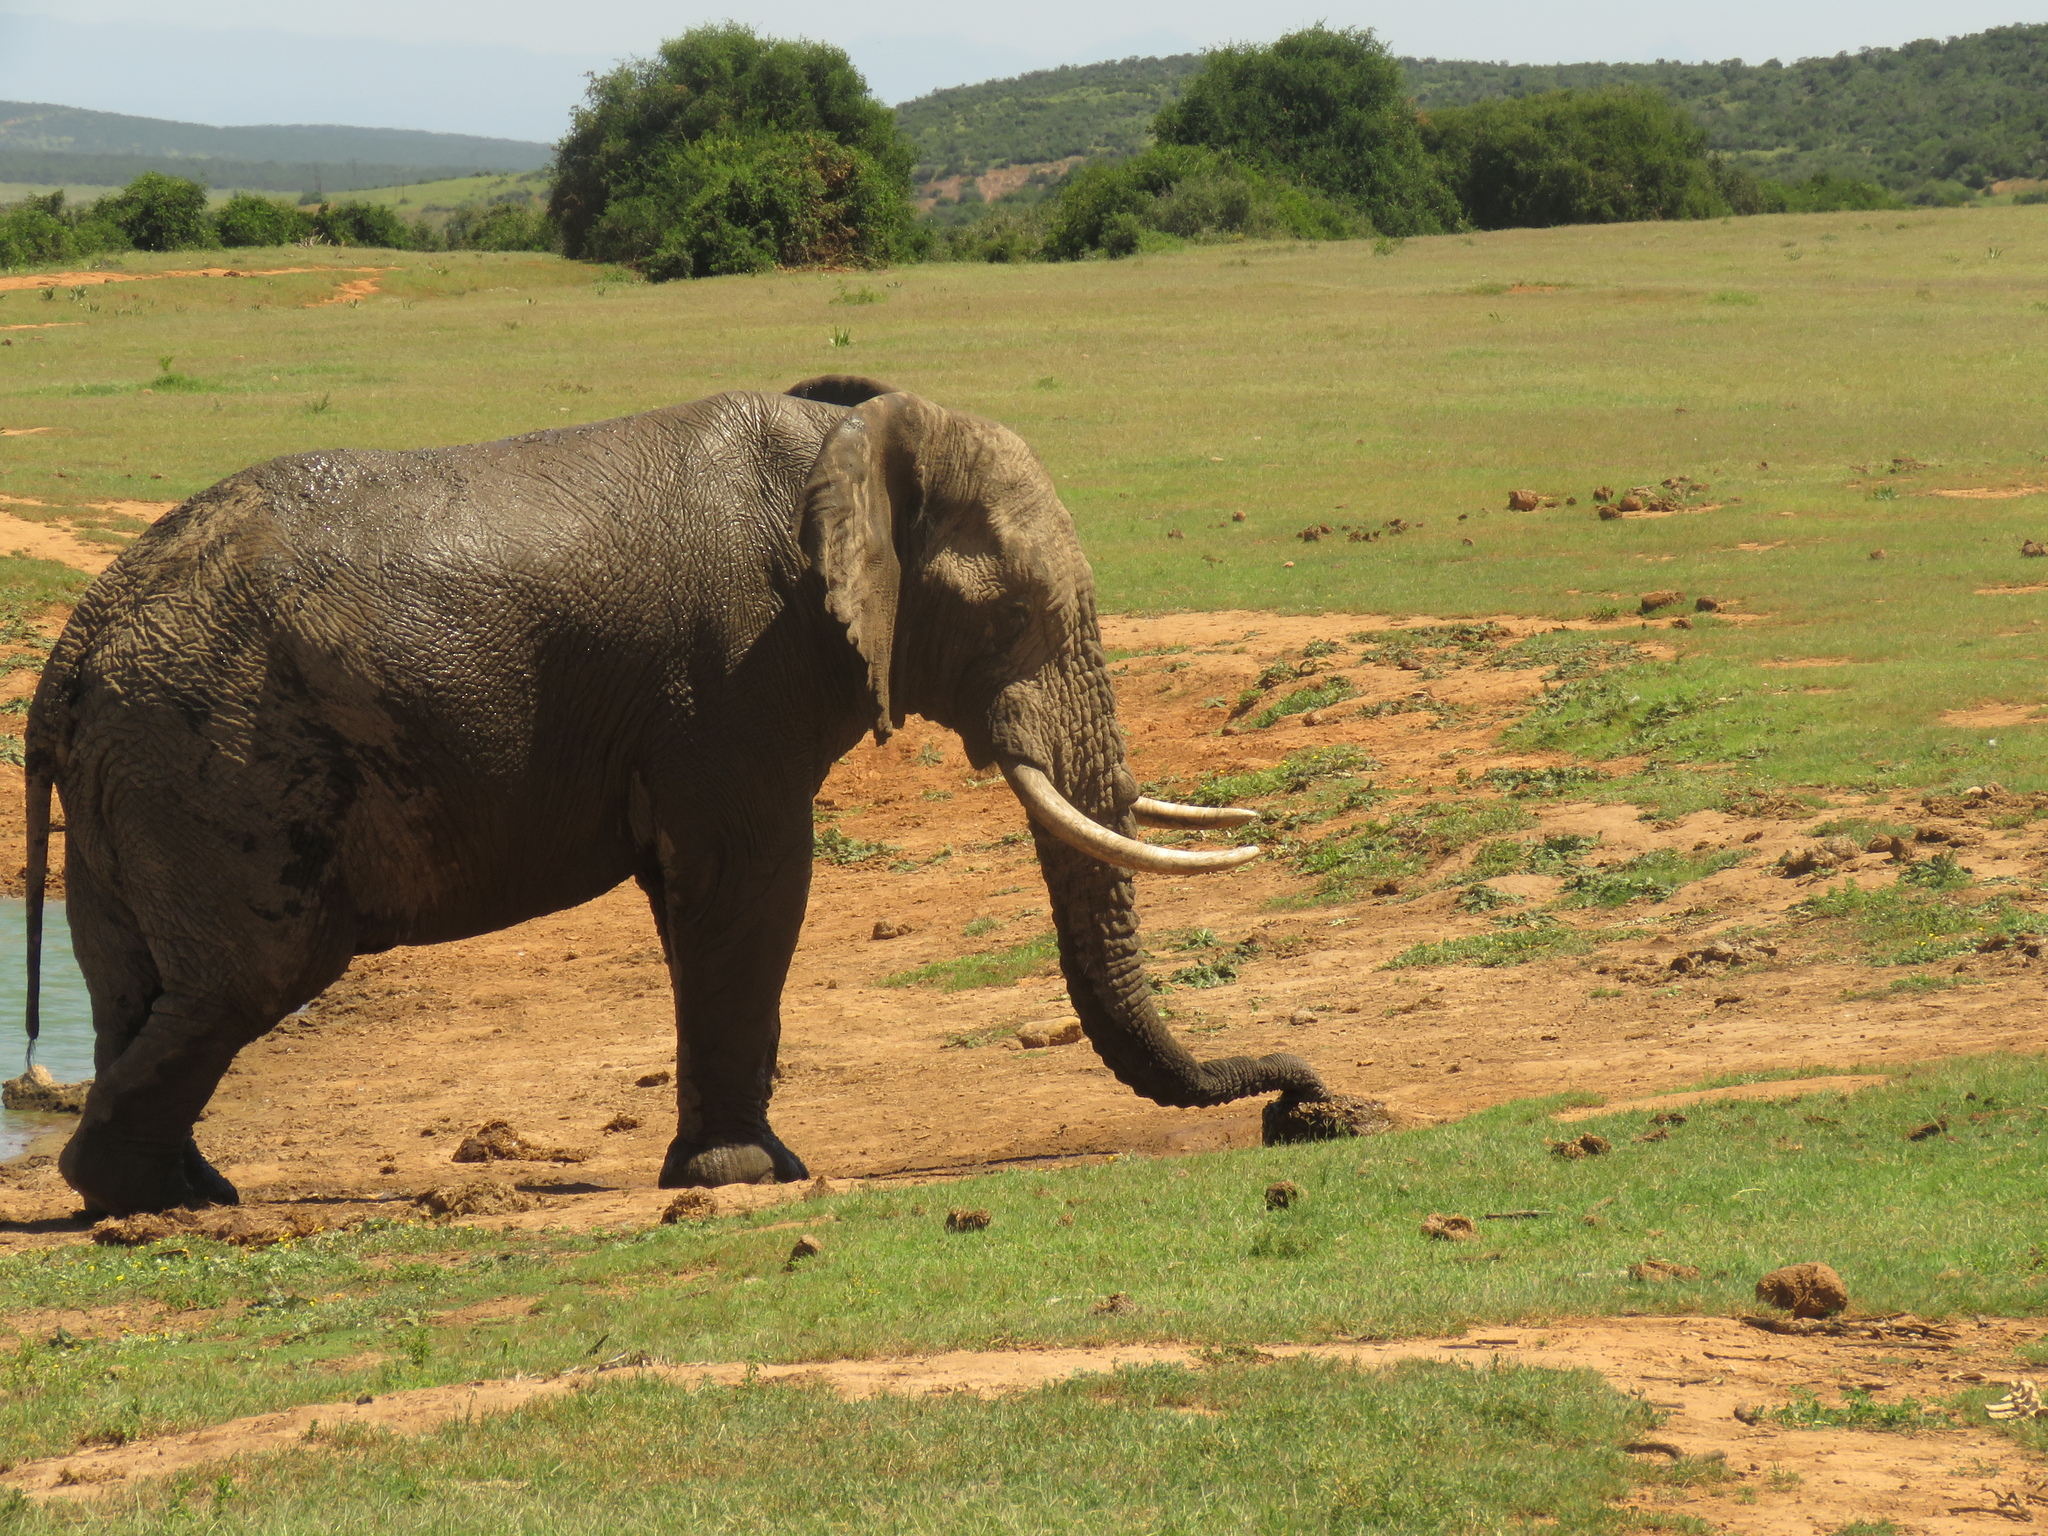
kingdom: Animalia
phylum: Chordata
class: Mammalia
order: Proboscidea
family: Elephantidae
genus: Loxodonta
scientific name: Loxodonta africana
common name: African elephant
